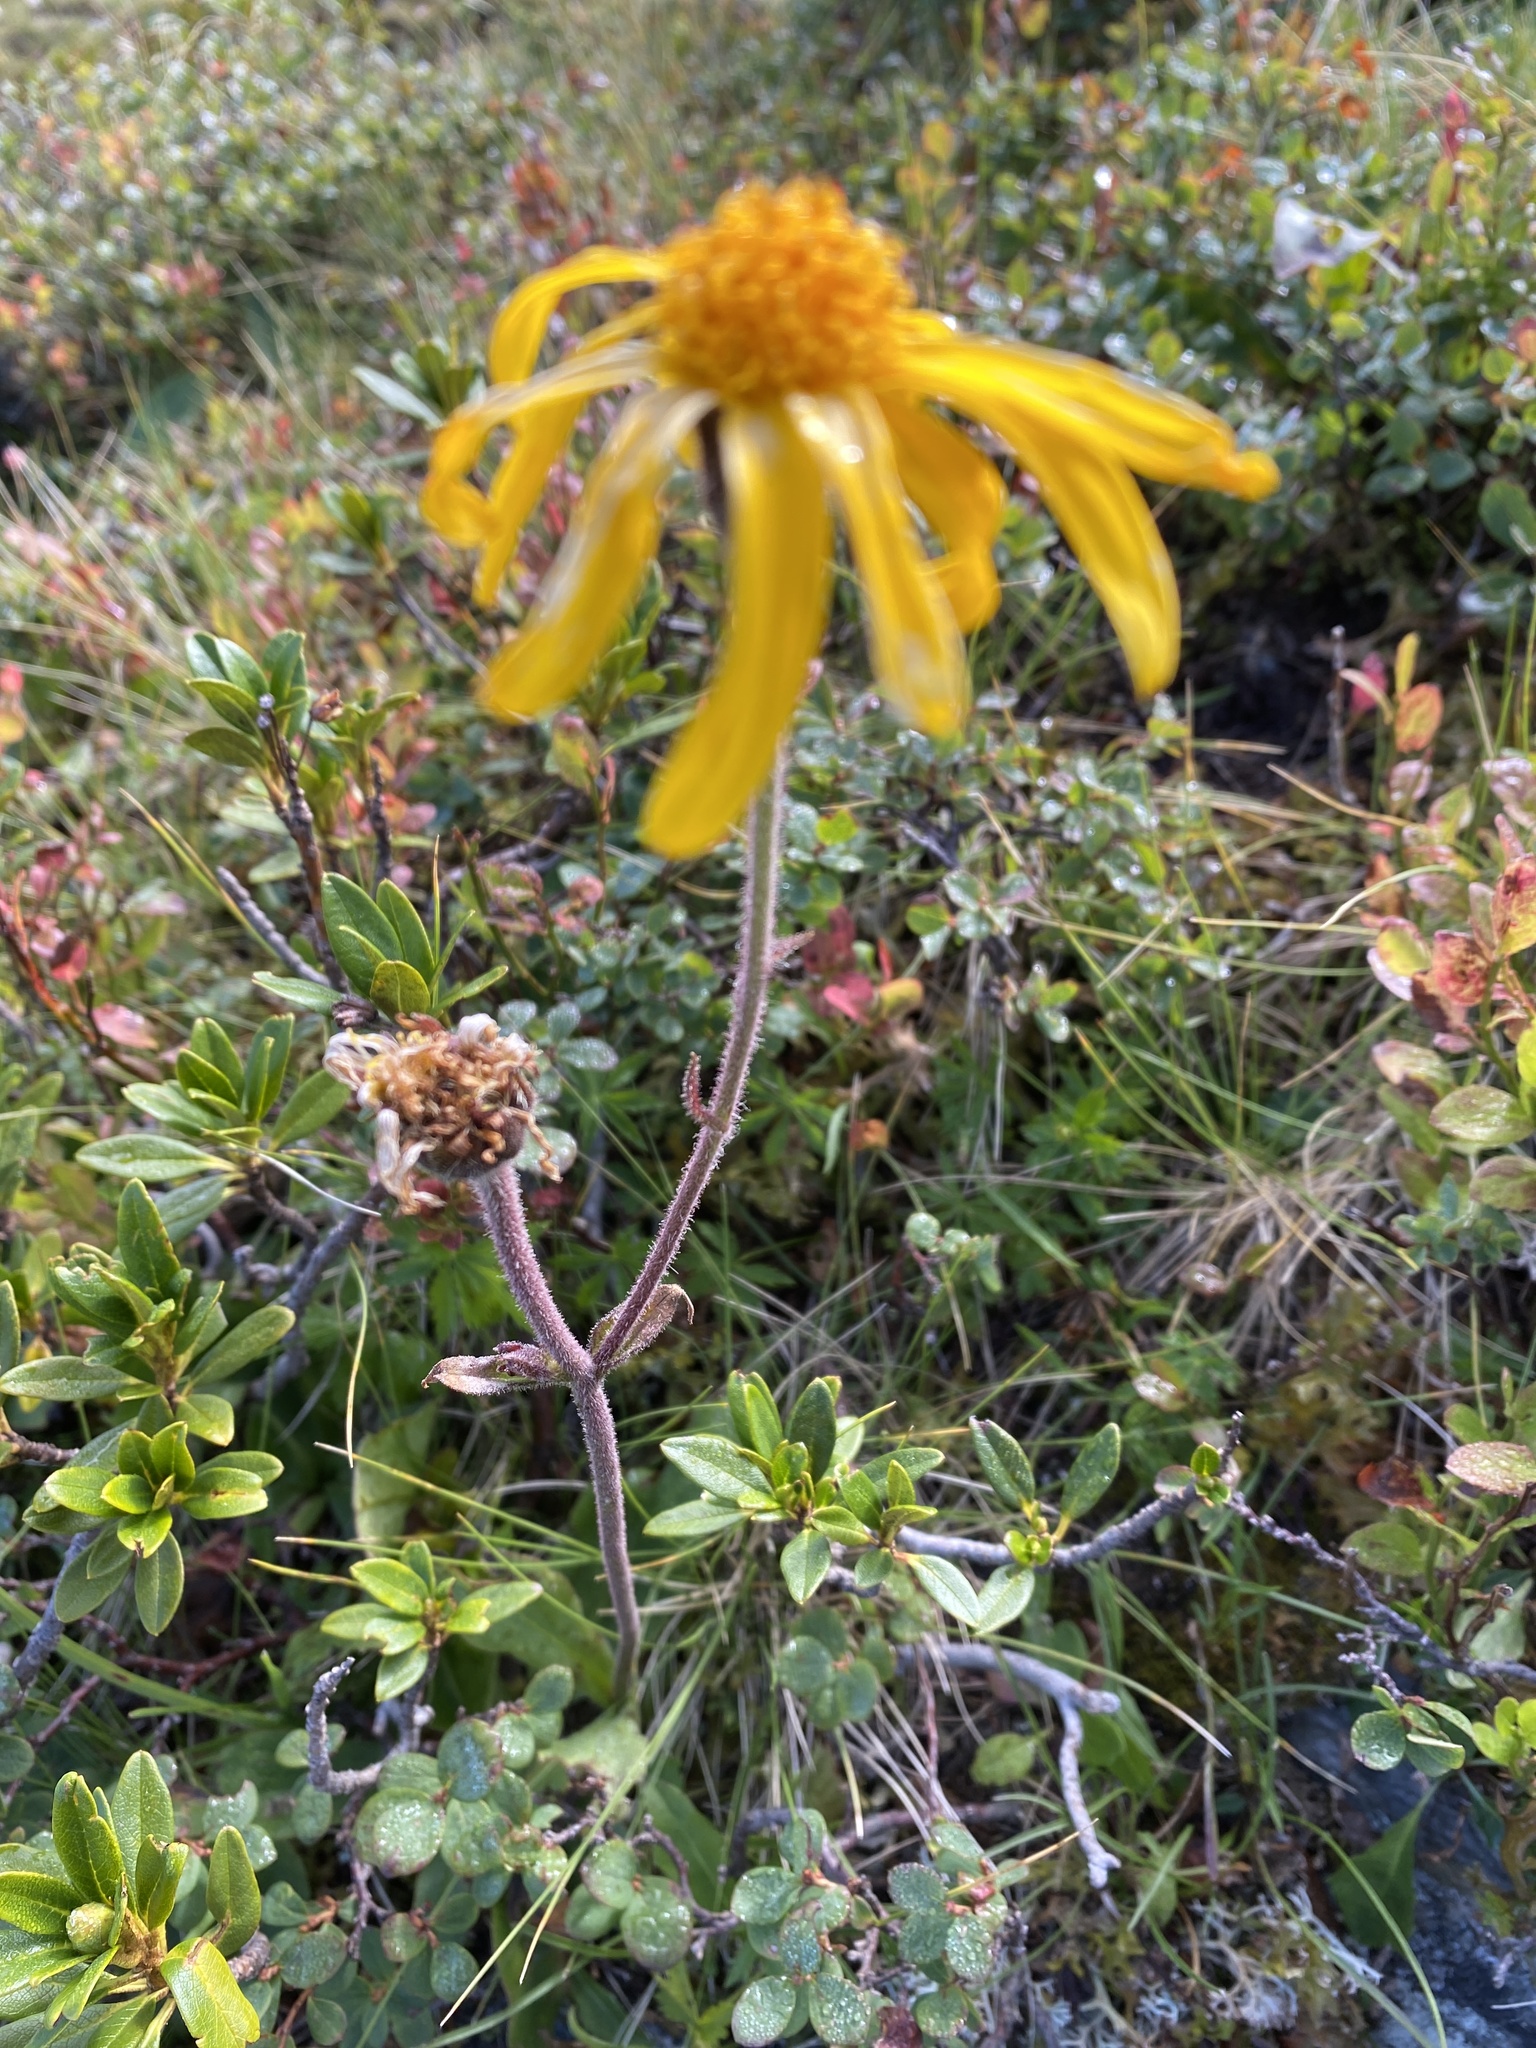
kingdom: Plantae
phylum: Tracheophyta
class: Magnoliopsida
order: Asterales
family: Asteraceae
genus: Arnica
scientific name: Arnica montana
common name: Leopard's bane
